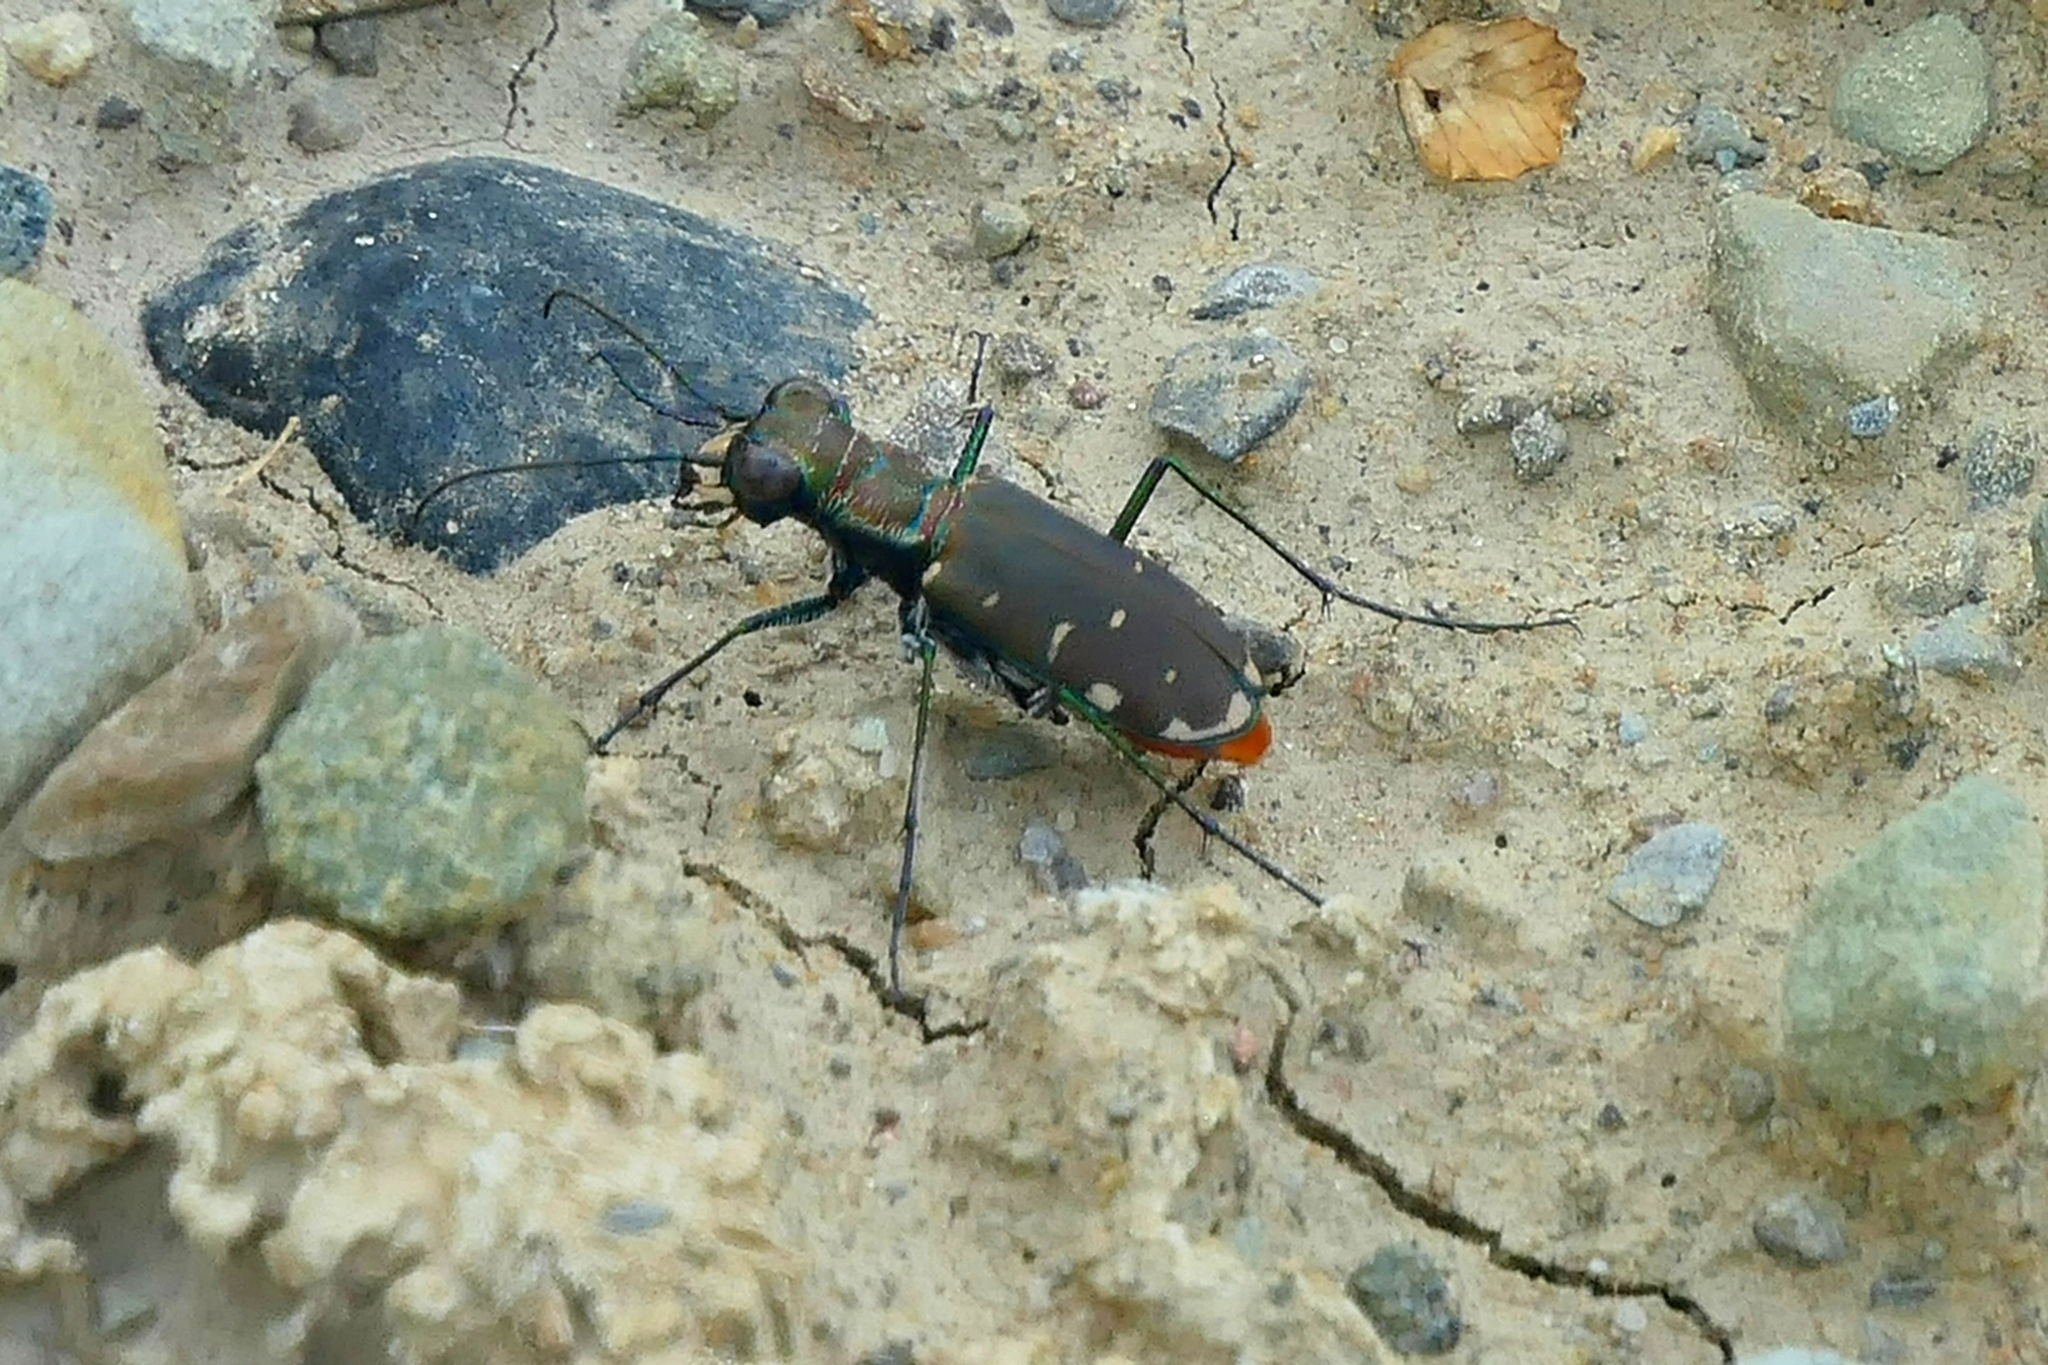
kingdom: Animalia
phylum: Arthropoda
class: Insecta
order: Coleoptera
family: Carabidae
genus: Cicindela
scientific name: Cicindela rufiventris
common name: Eastern red-bellied tiger beetle
